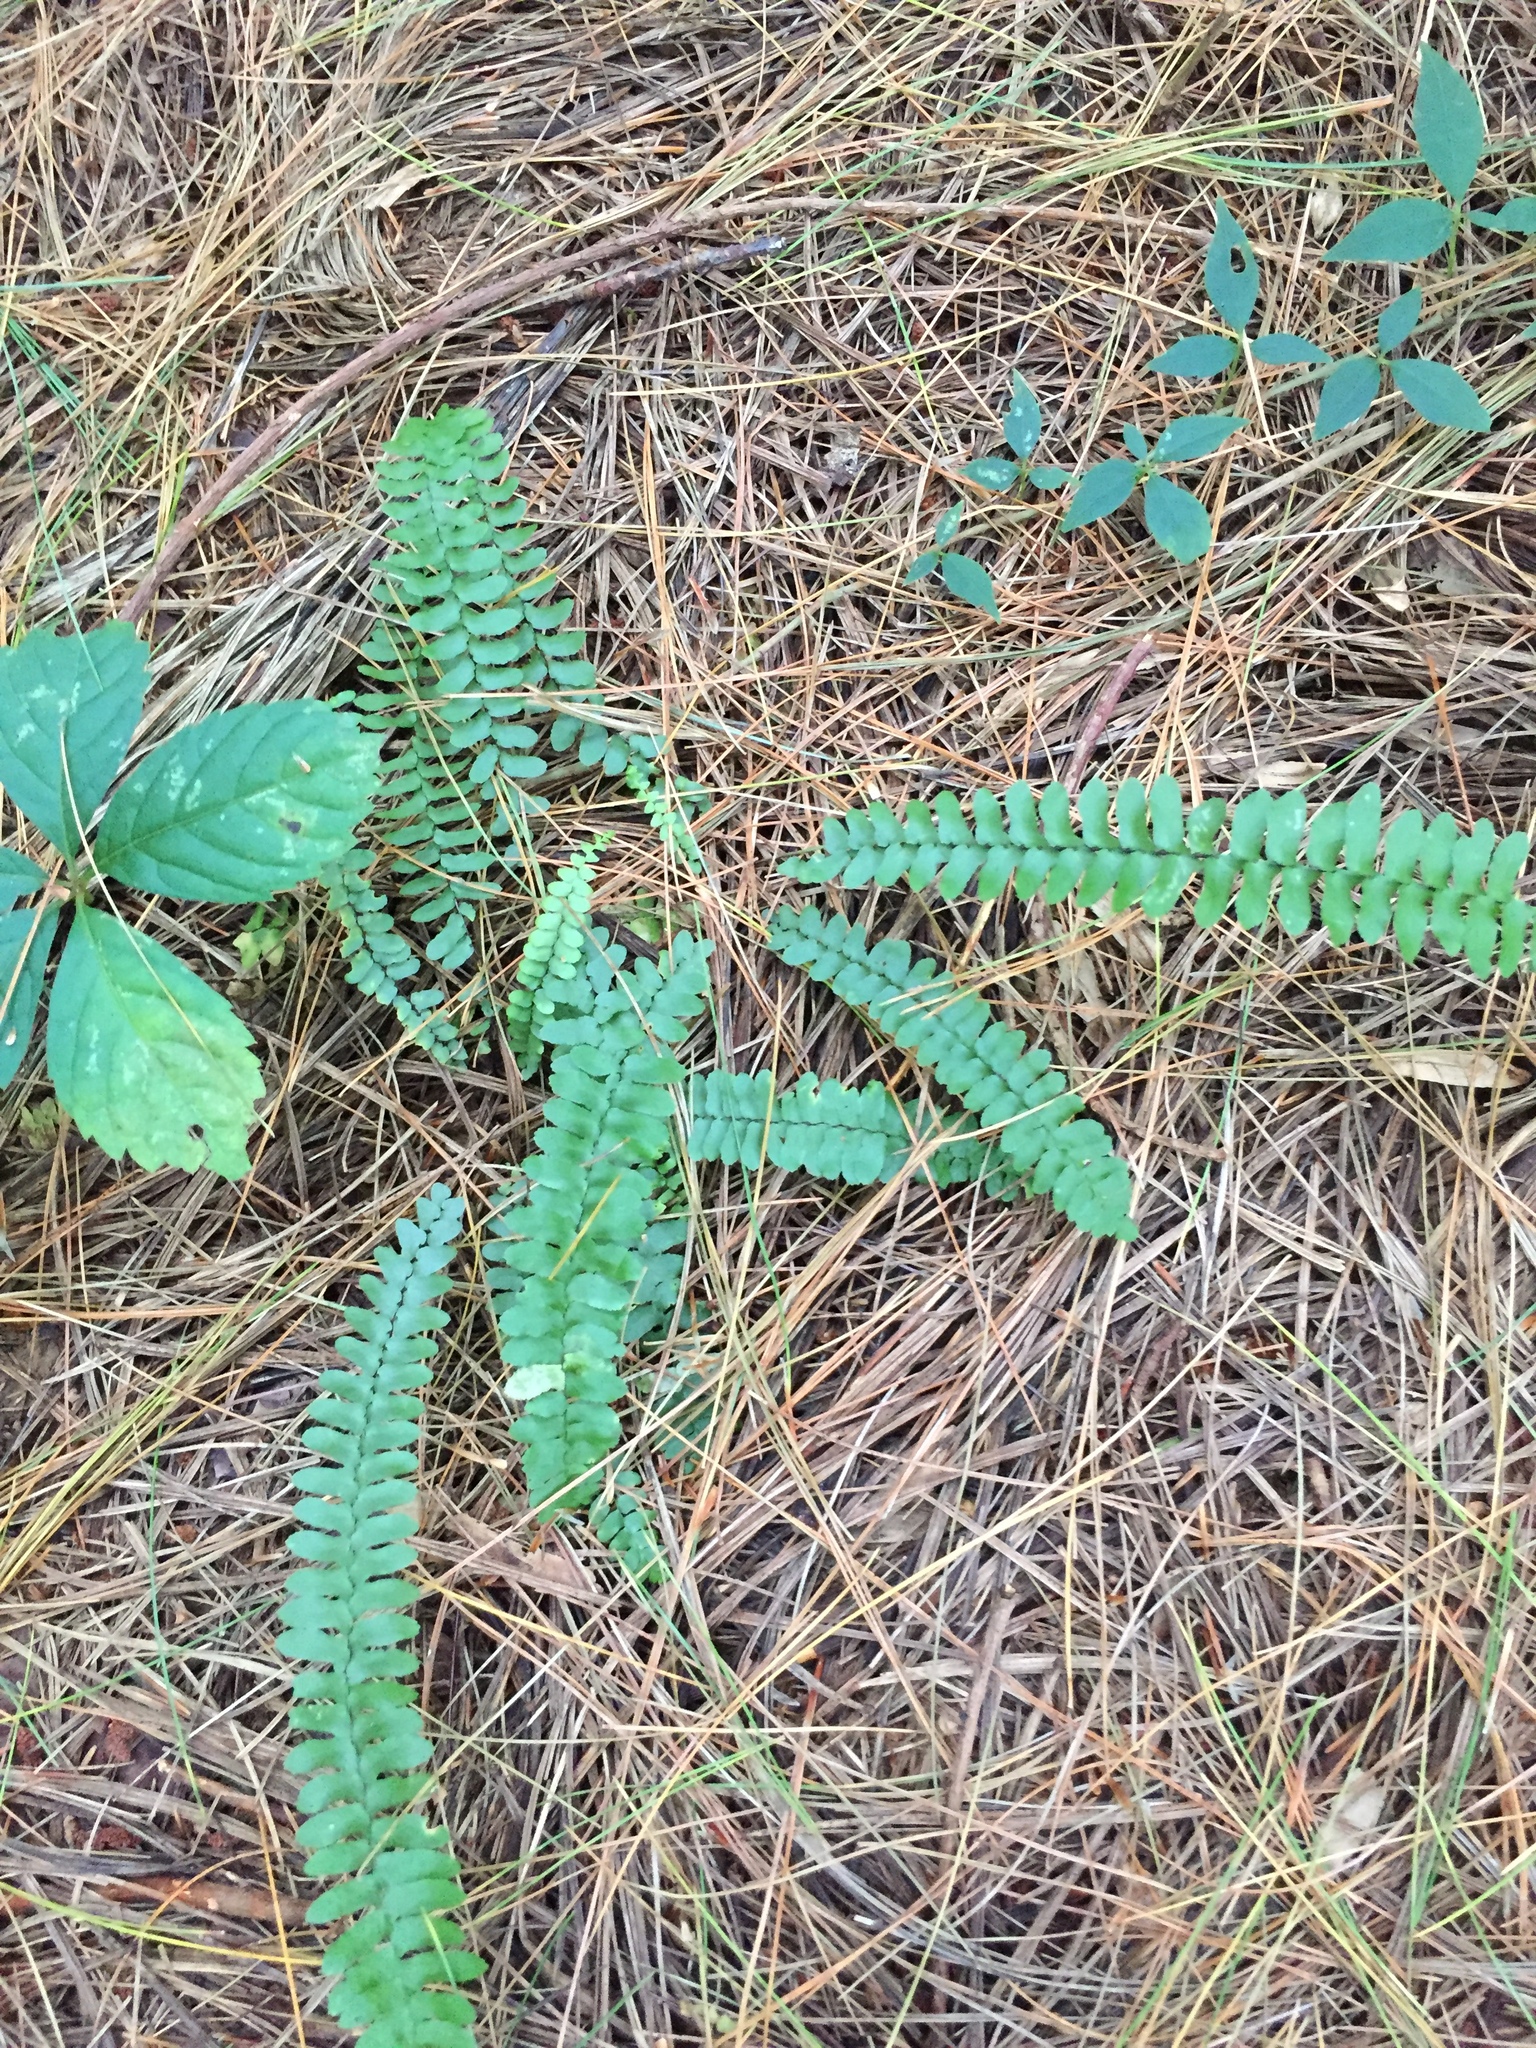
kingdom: Plantae
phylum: Tracheophyta
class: Polypodiopsida
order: Polypodiales
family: Aspleniaceae
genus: Asplenium
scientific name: Asplenium platyneuron
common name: Ebony spleenwort
